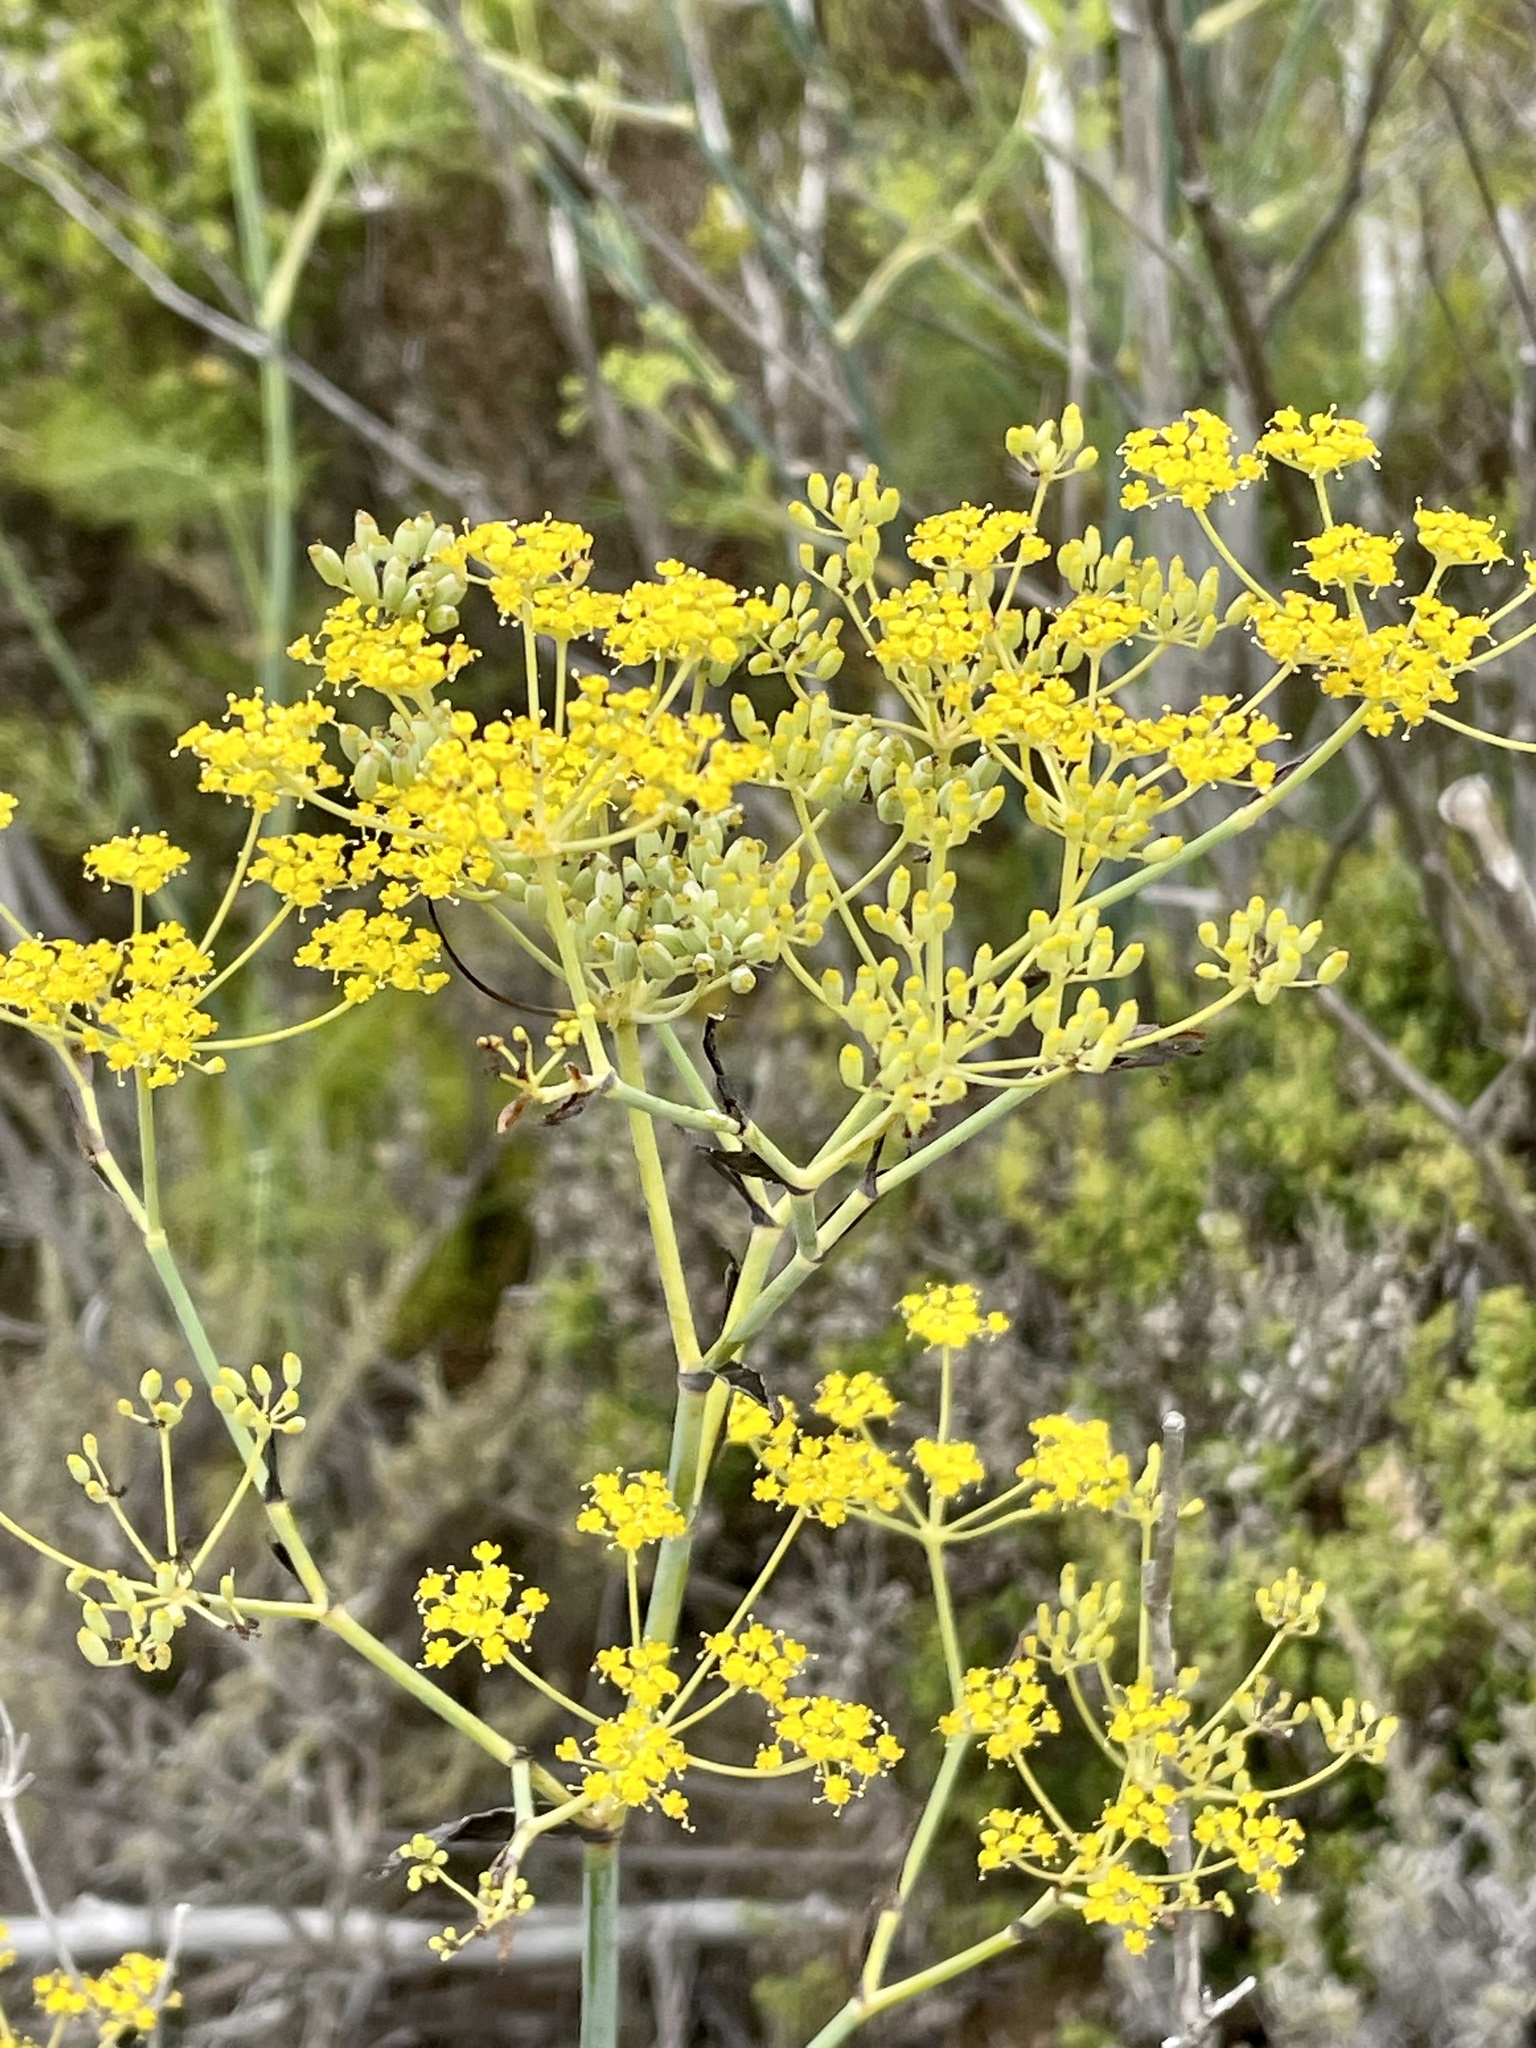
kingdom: Plantae
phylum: Tracheophyta
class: Magnoliopsida
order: Apiales
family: Apiaceae
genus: Foeniculum
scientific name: Foeniculum vulgare
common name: Fennel
